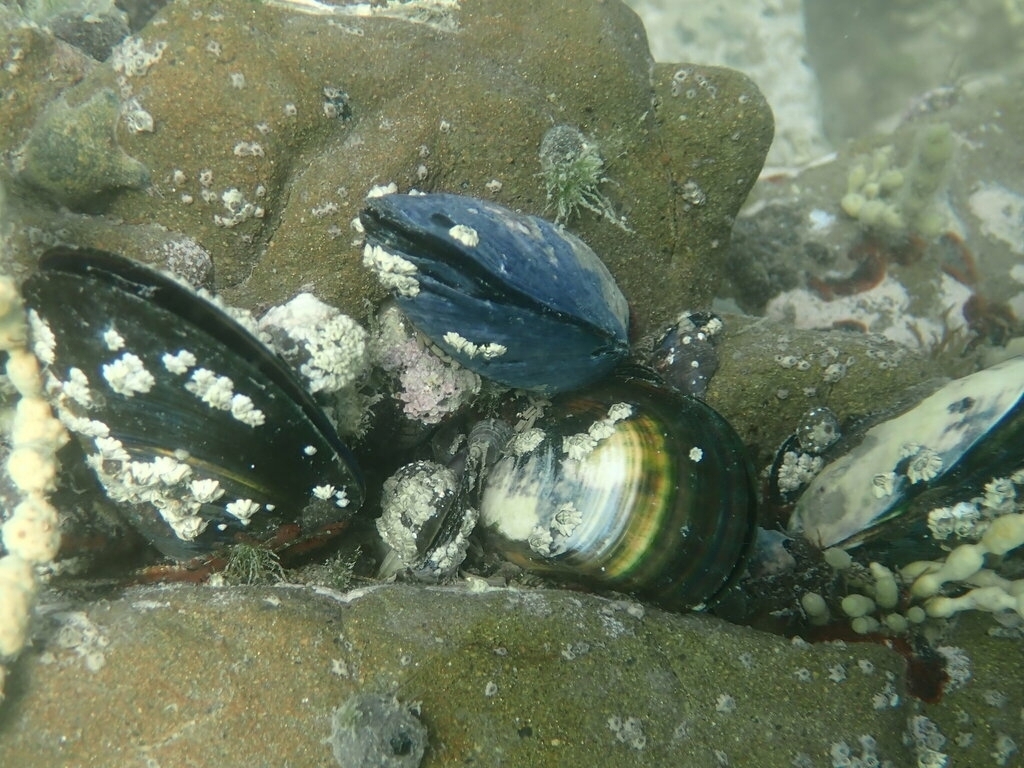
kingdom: Animalia
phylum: Mollusca
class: Bivalvia
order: Mytilida
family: Mytilidae
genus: Mytilus
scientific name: Mytilus planulatus
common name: Australian mussel
